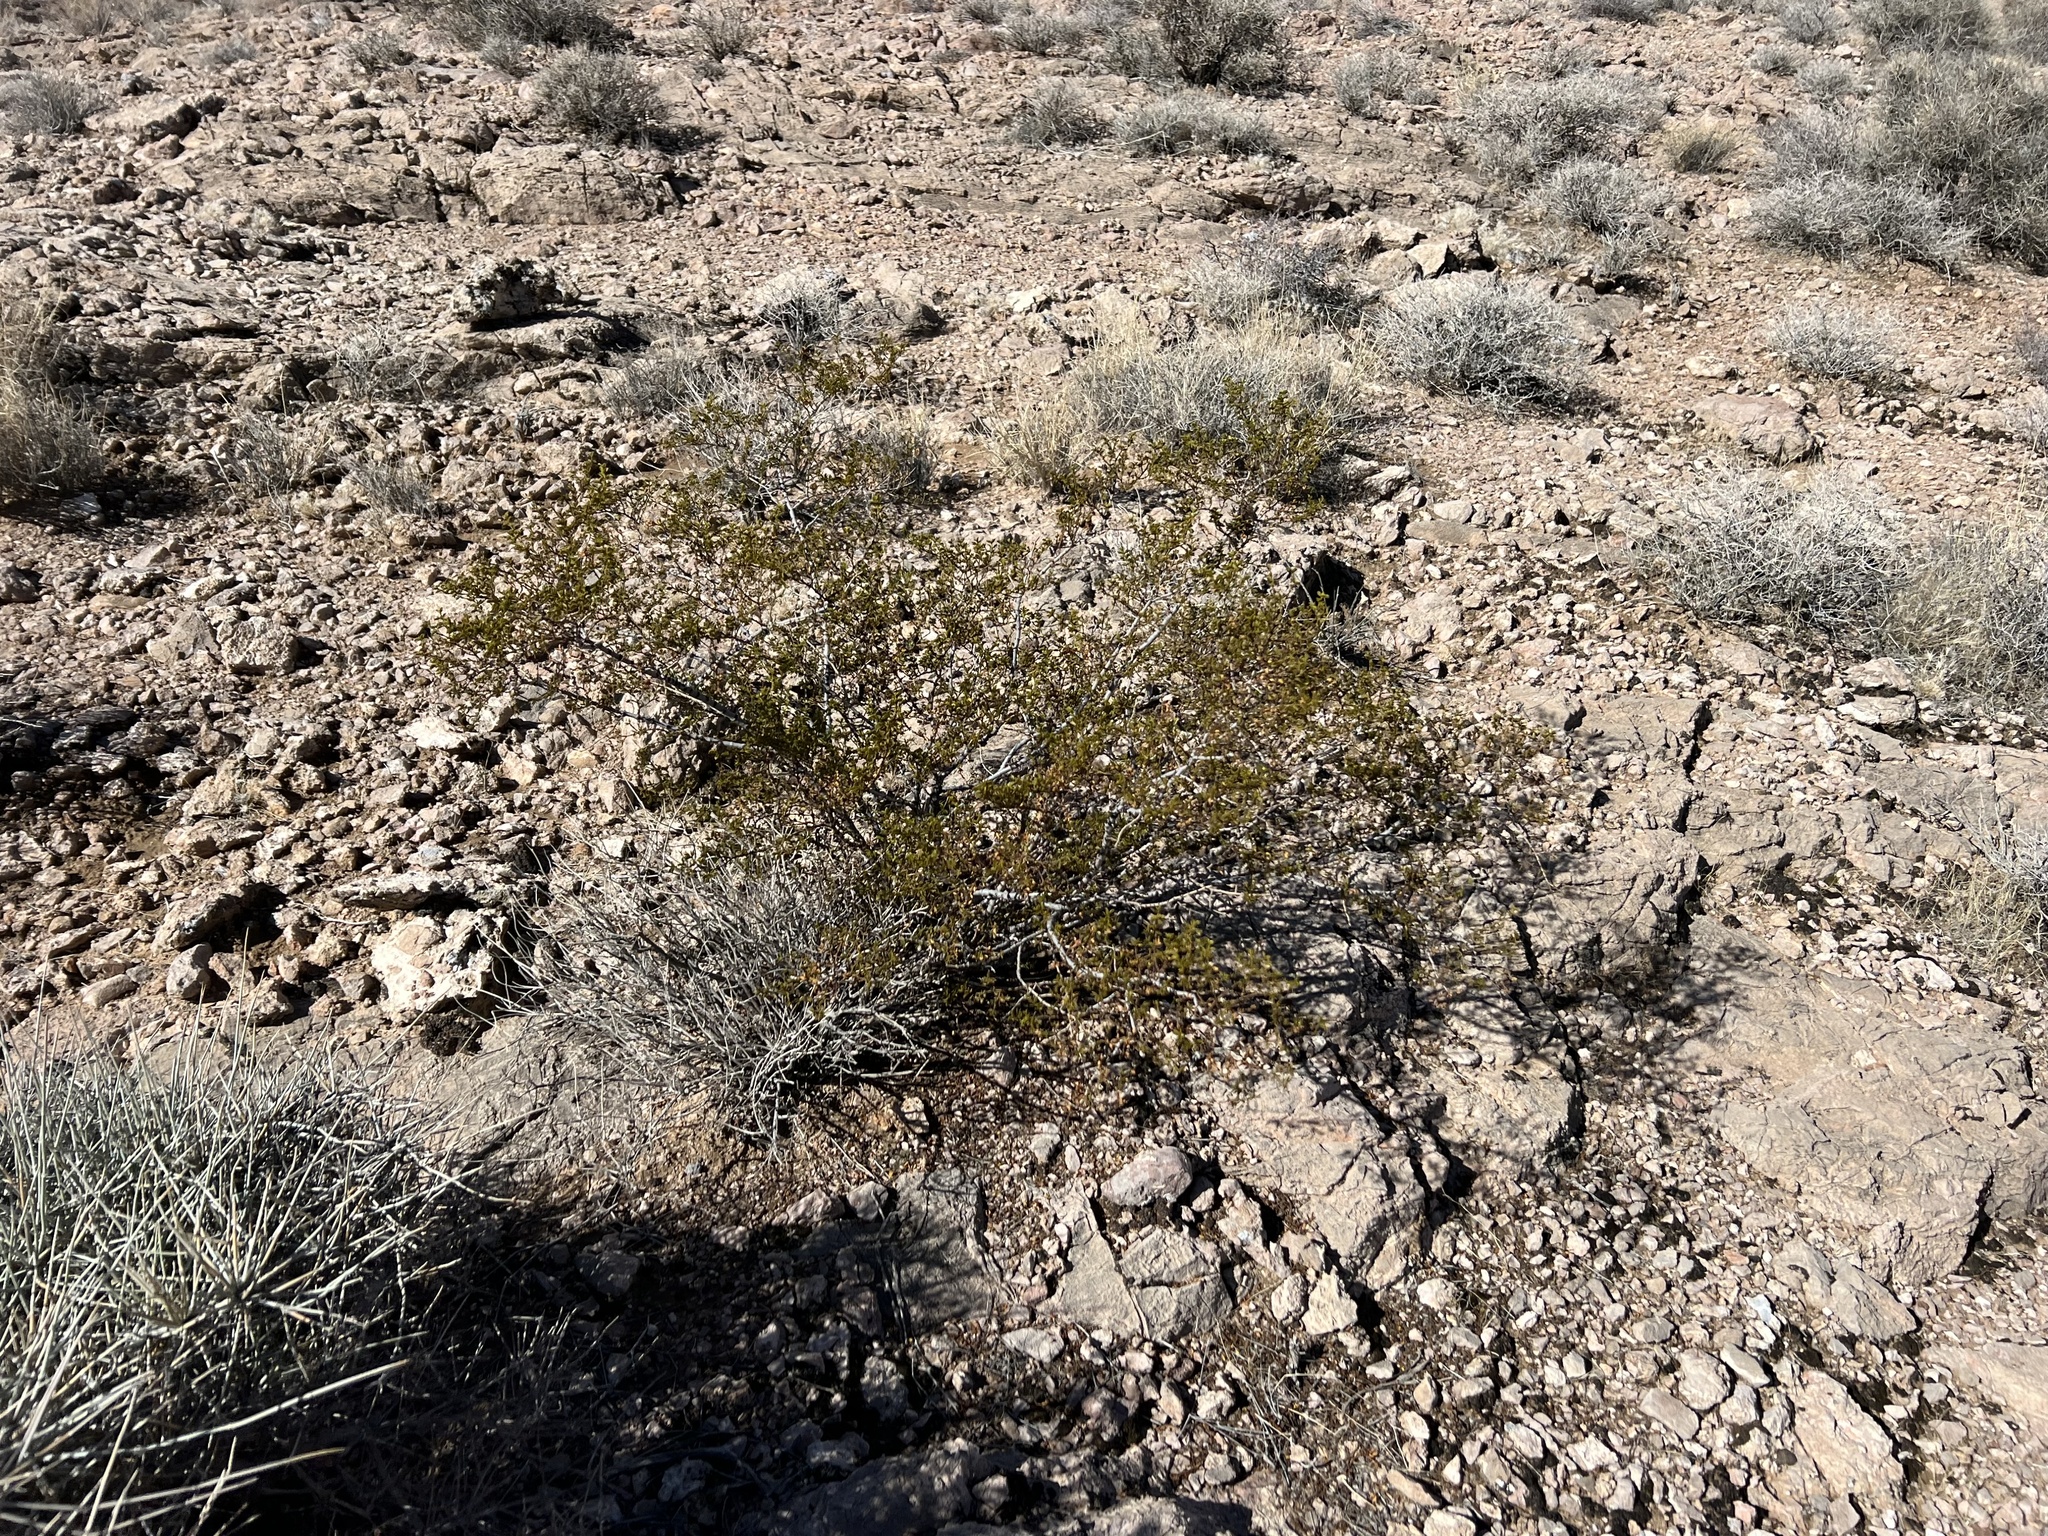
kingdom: Plantae
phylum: Tracheophyta
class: Magnoliopsida
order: Zygophyllales
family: Zygophyllaceae
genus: Larrea
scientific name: Larrea tridentata
